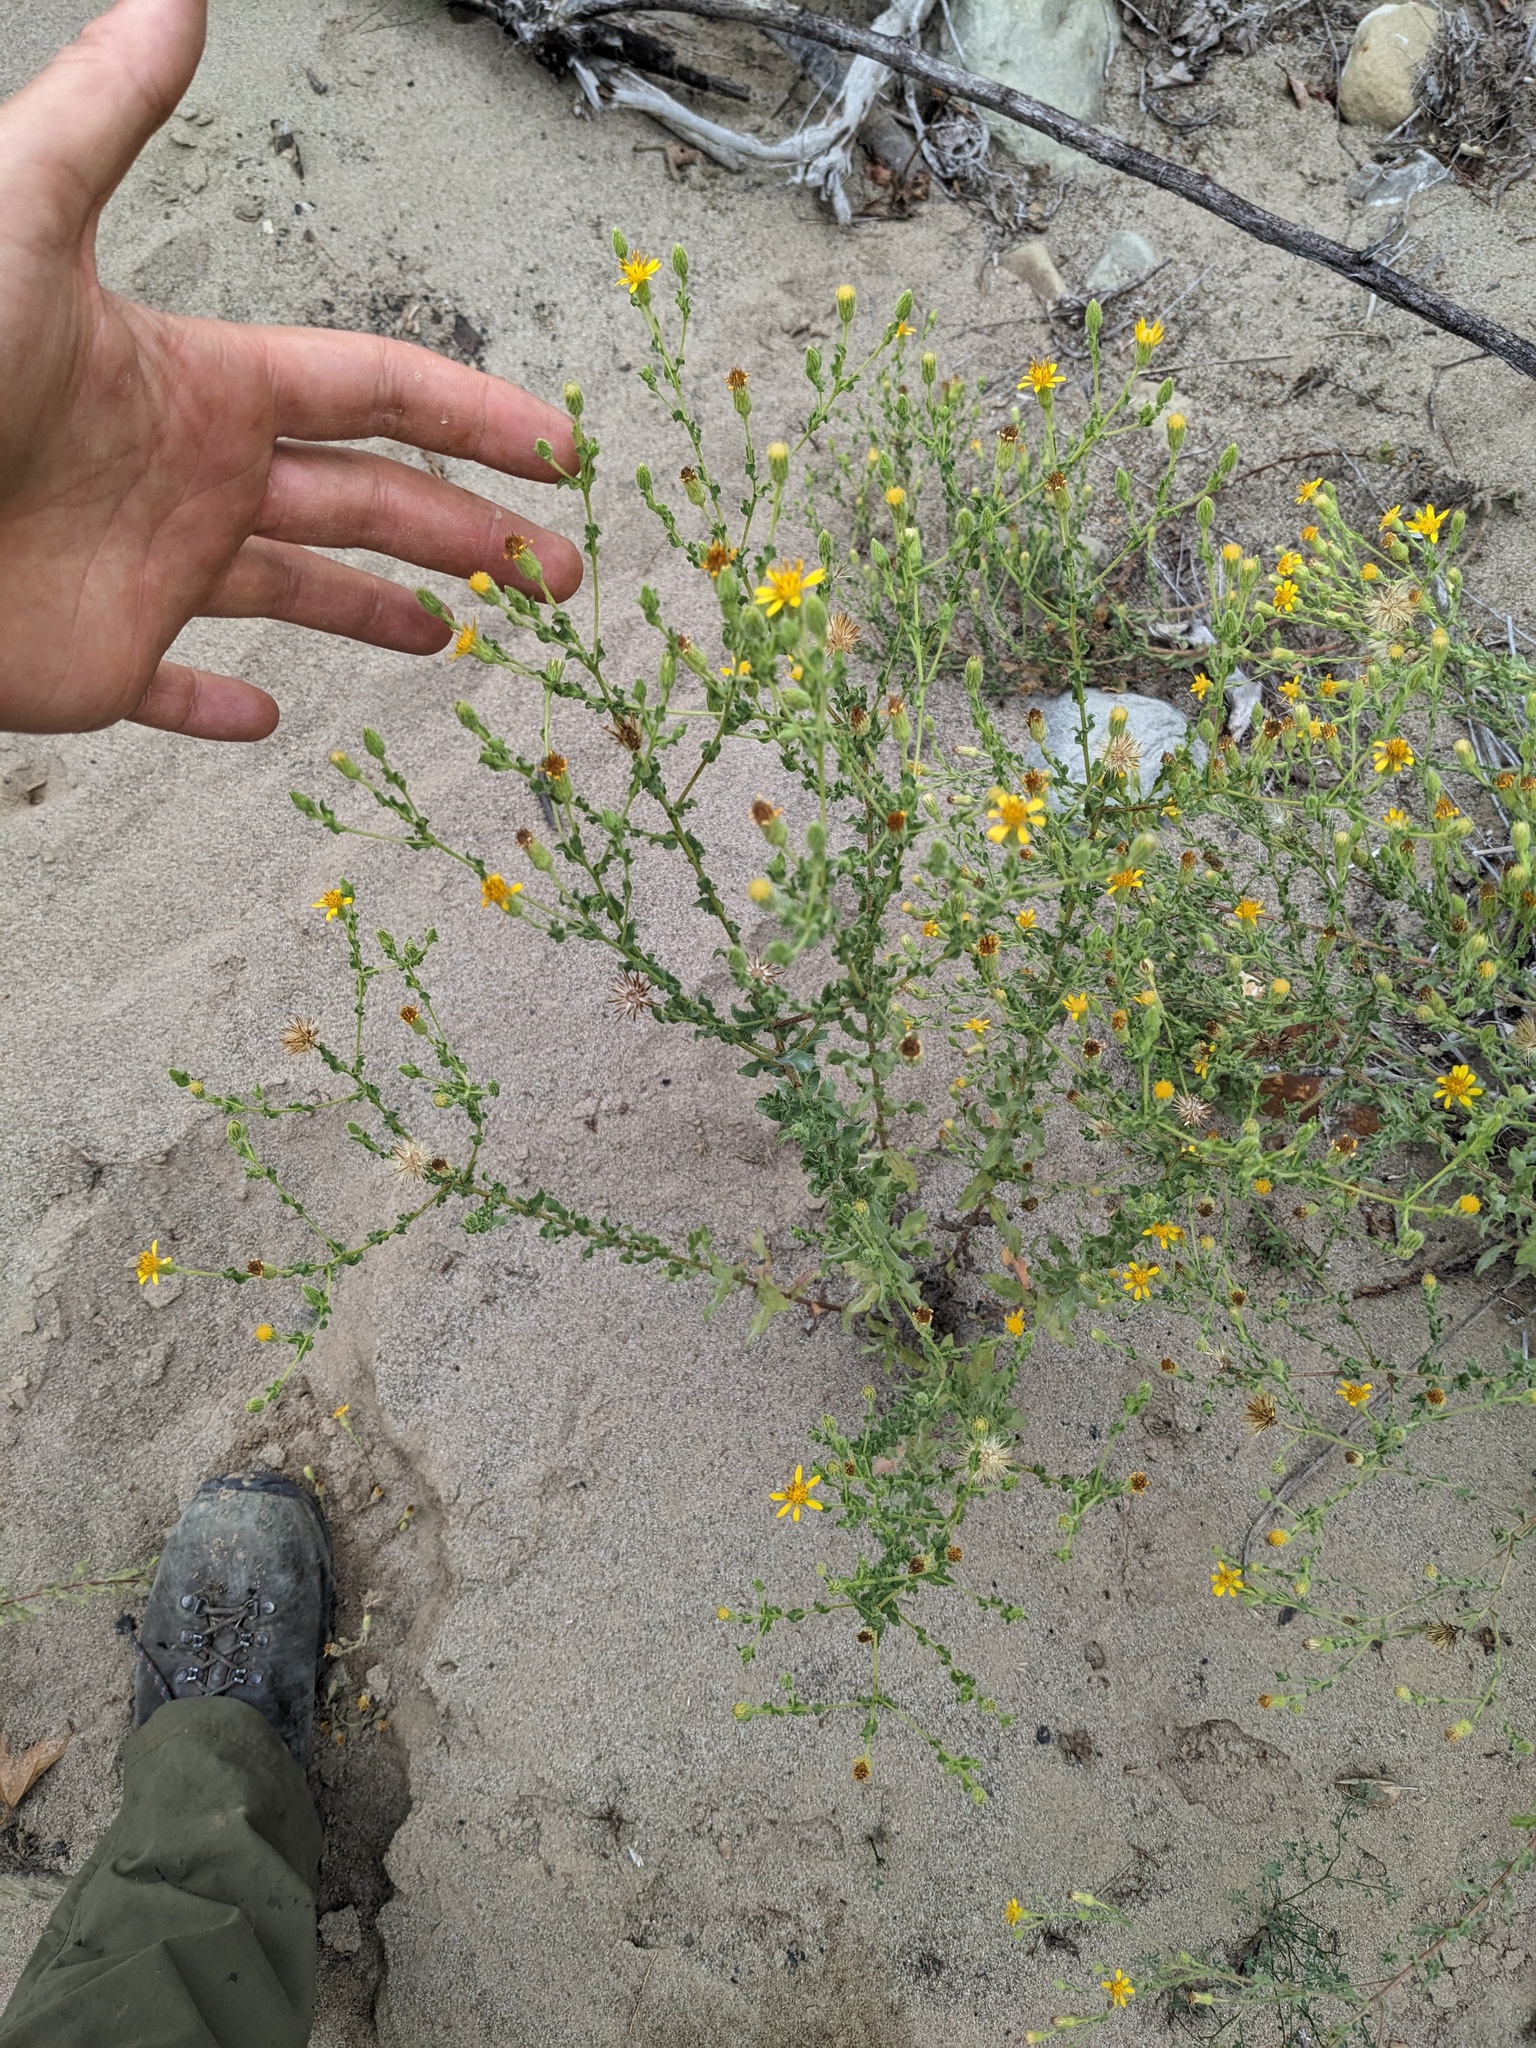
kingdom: Plantae
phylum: Tracheophyta
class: Magnoliopsida
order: Asterales
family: Asteraceae
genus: Heterotheca
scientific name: Heterotheca sessiliflora
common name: Sessile-flower golden-aster
